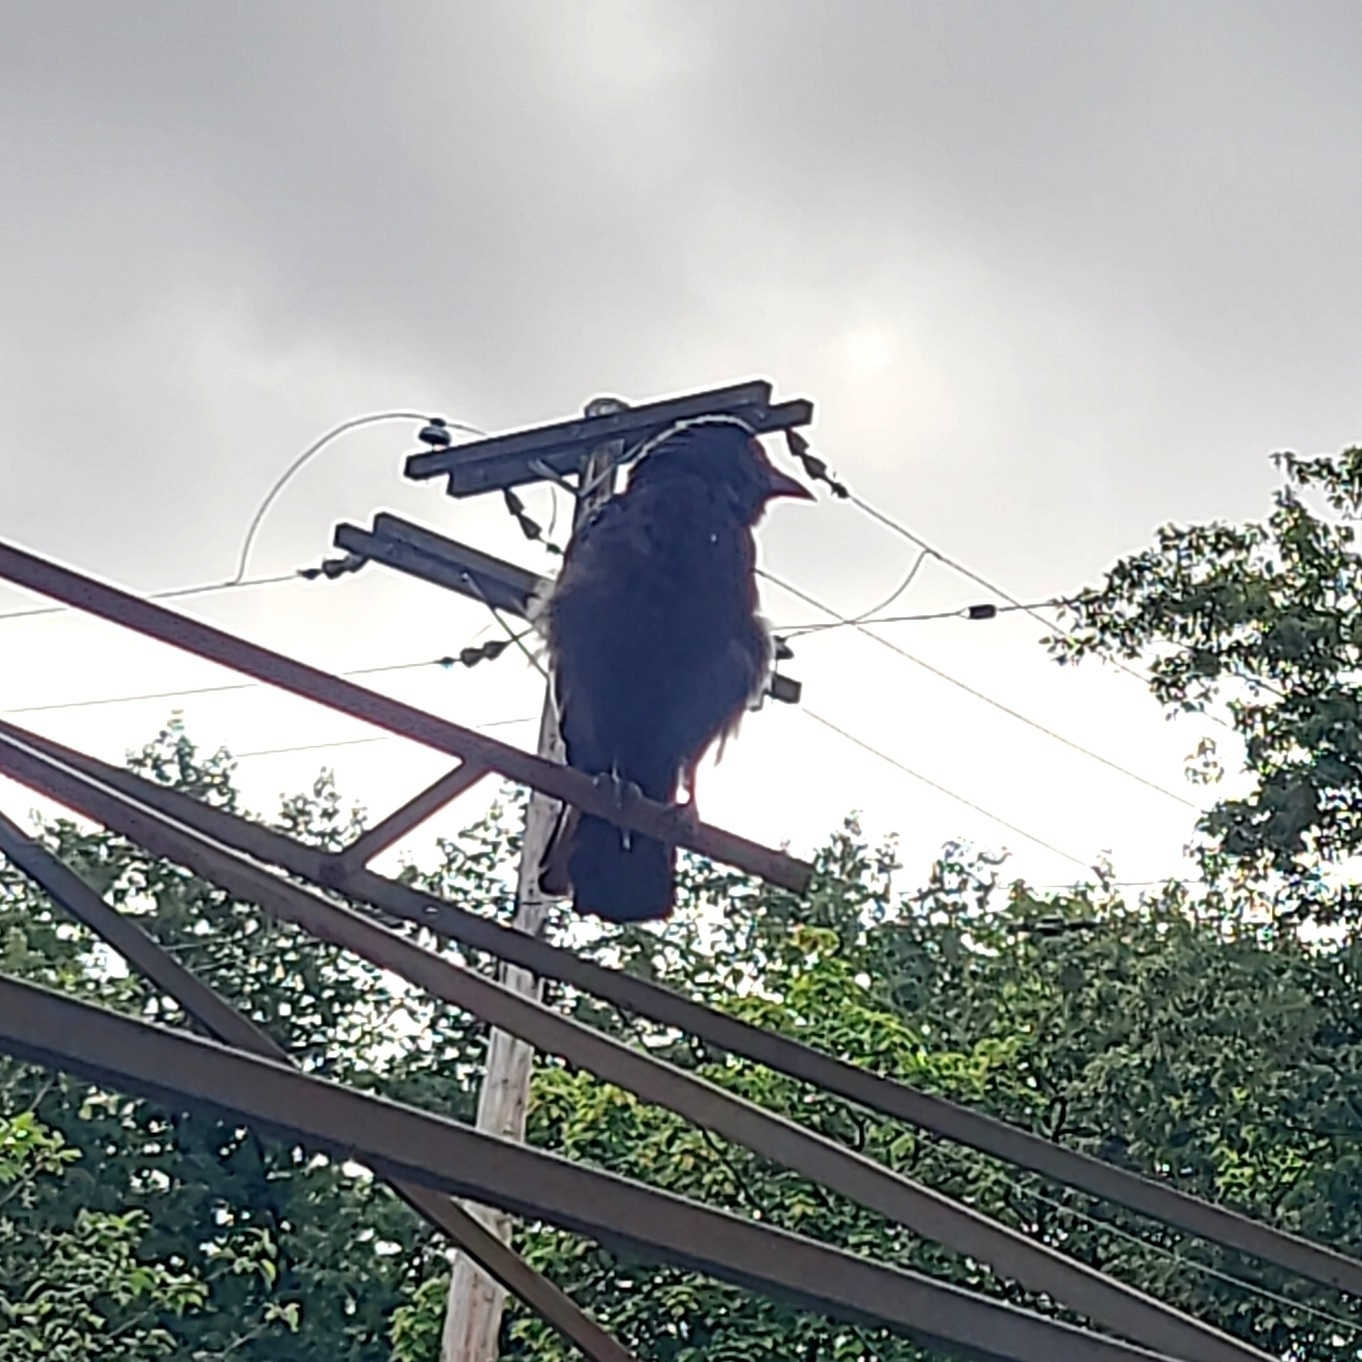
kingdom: Animalia
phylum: Chordata
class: Aves
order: Passeriformes
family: Corvidae
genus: Corvus
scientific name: Corvus brachyrhynchos
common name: American crow
